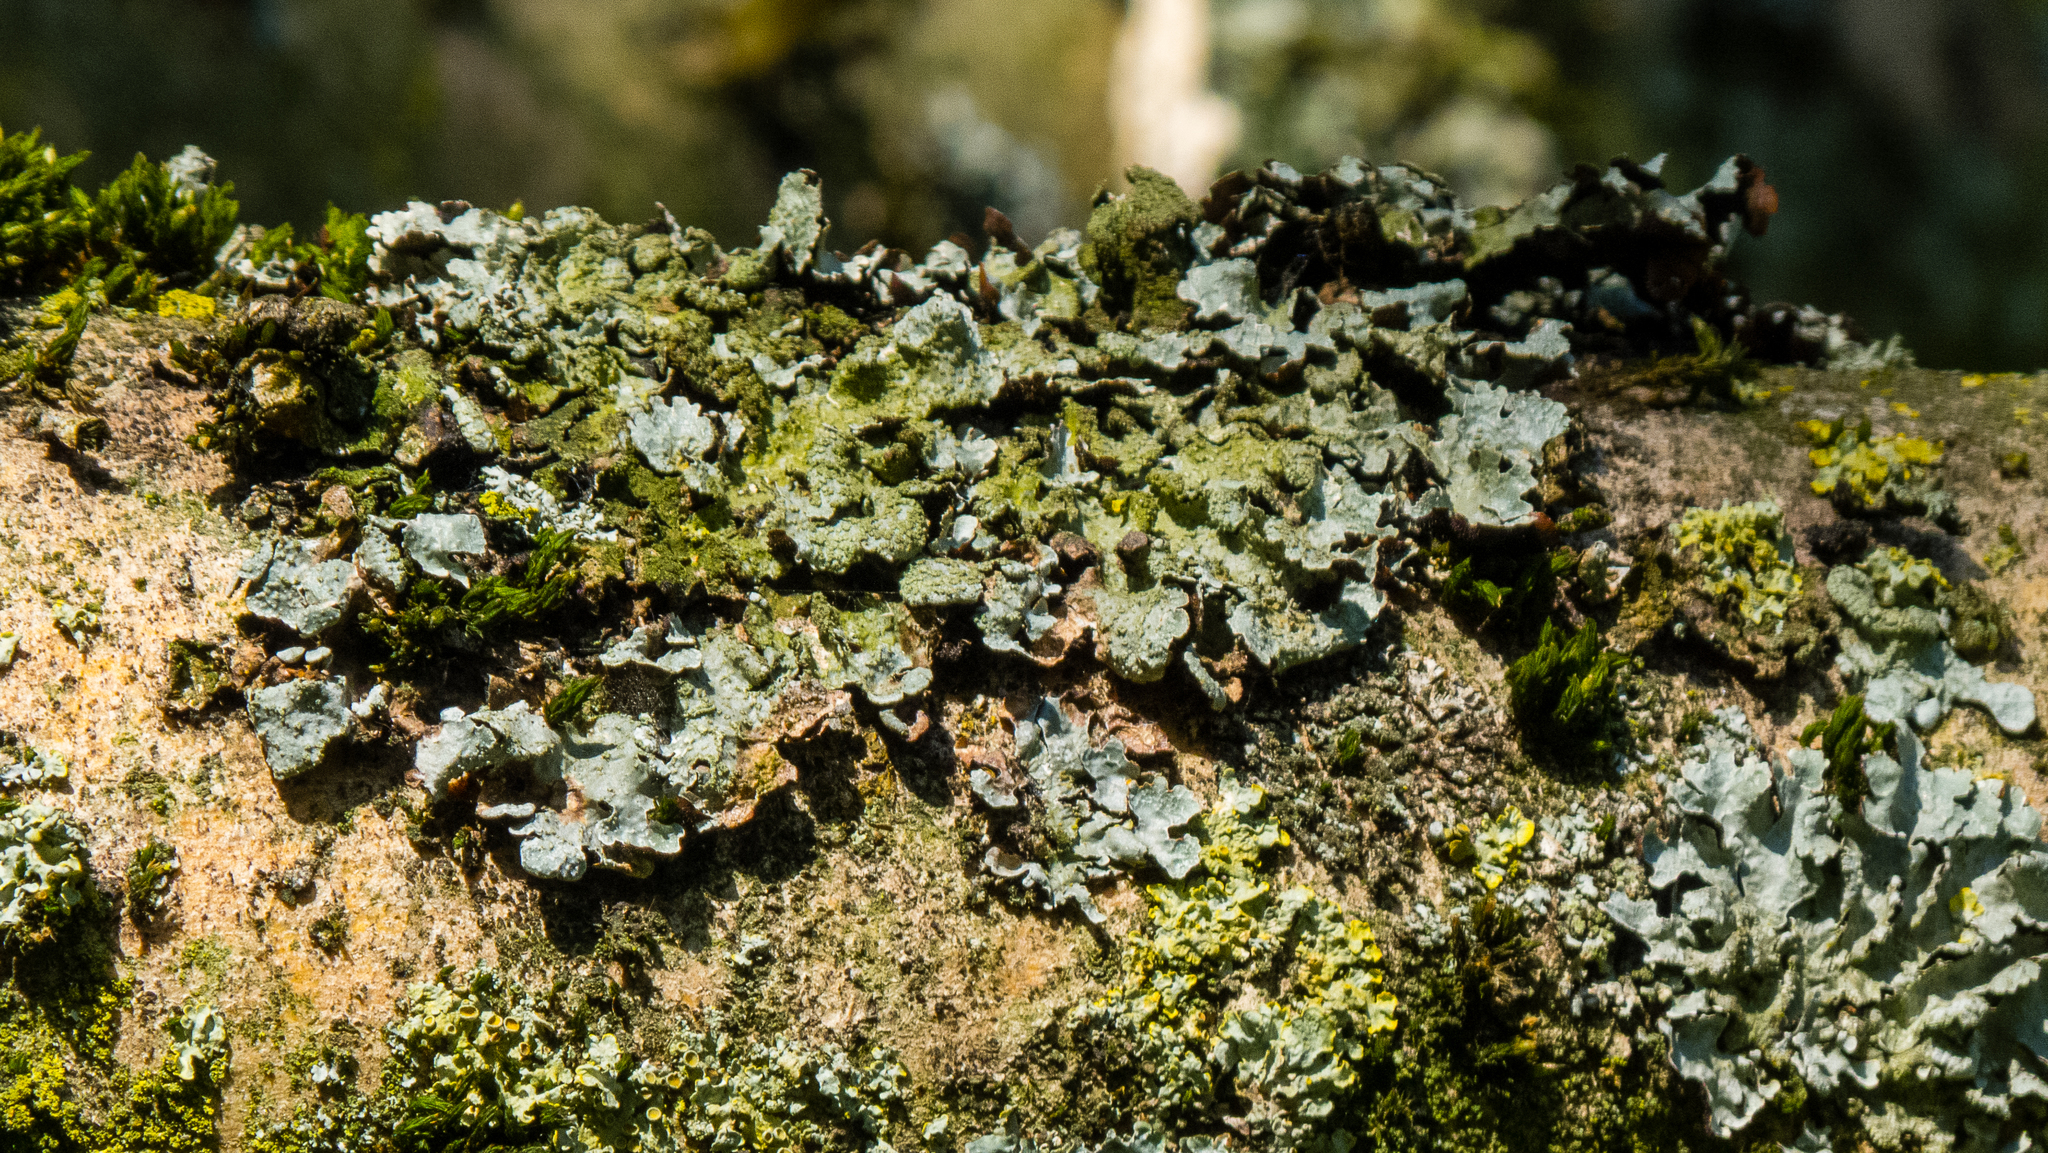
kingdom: Fungi
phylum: Ascomycota
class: Lecanoromycetes
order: Lecanorales
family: Parmeliaceae
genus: Parmelia
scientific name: Parmelia sulcata
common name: Netted shield lichen
